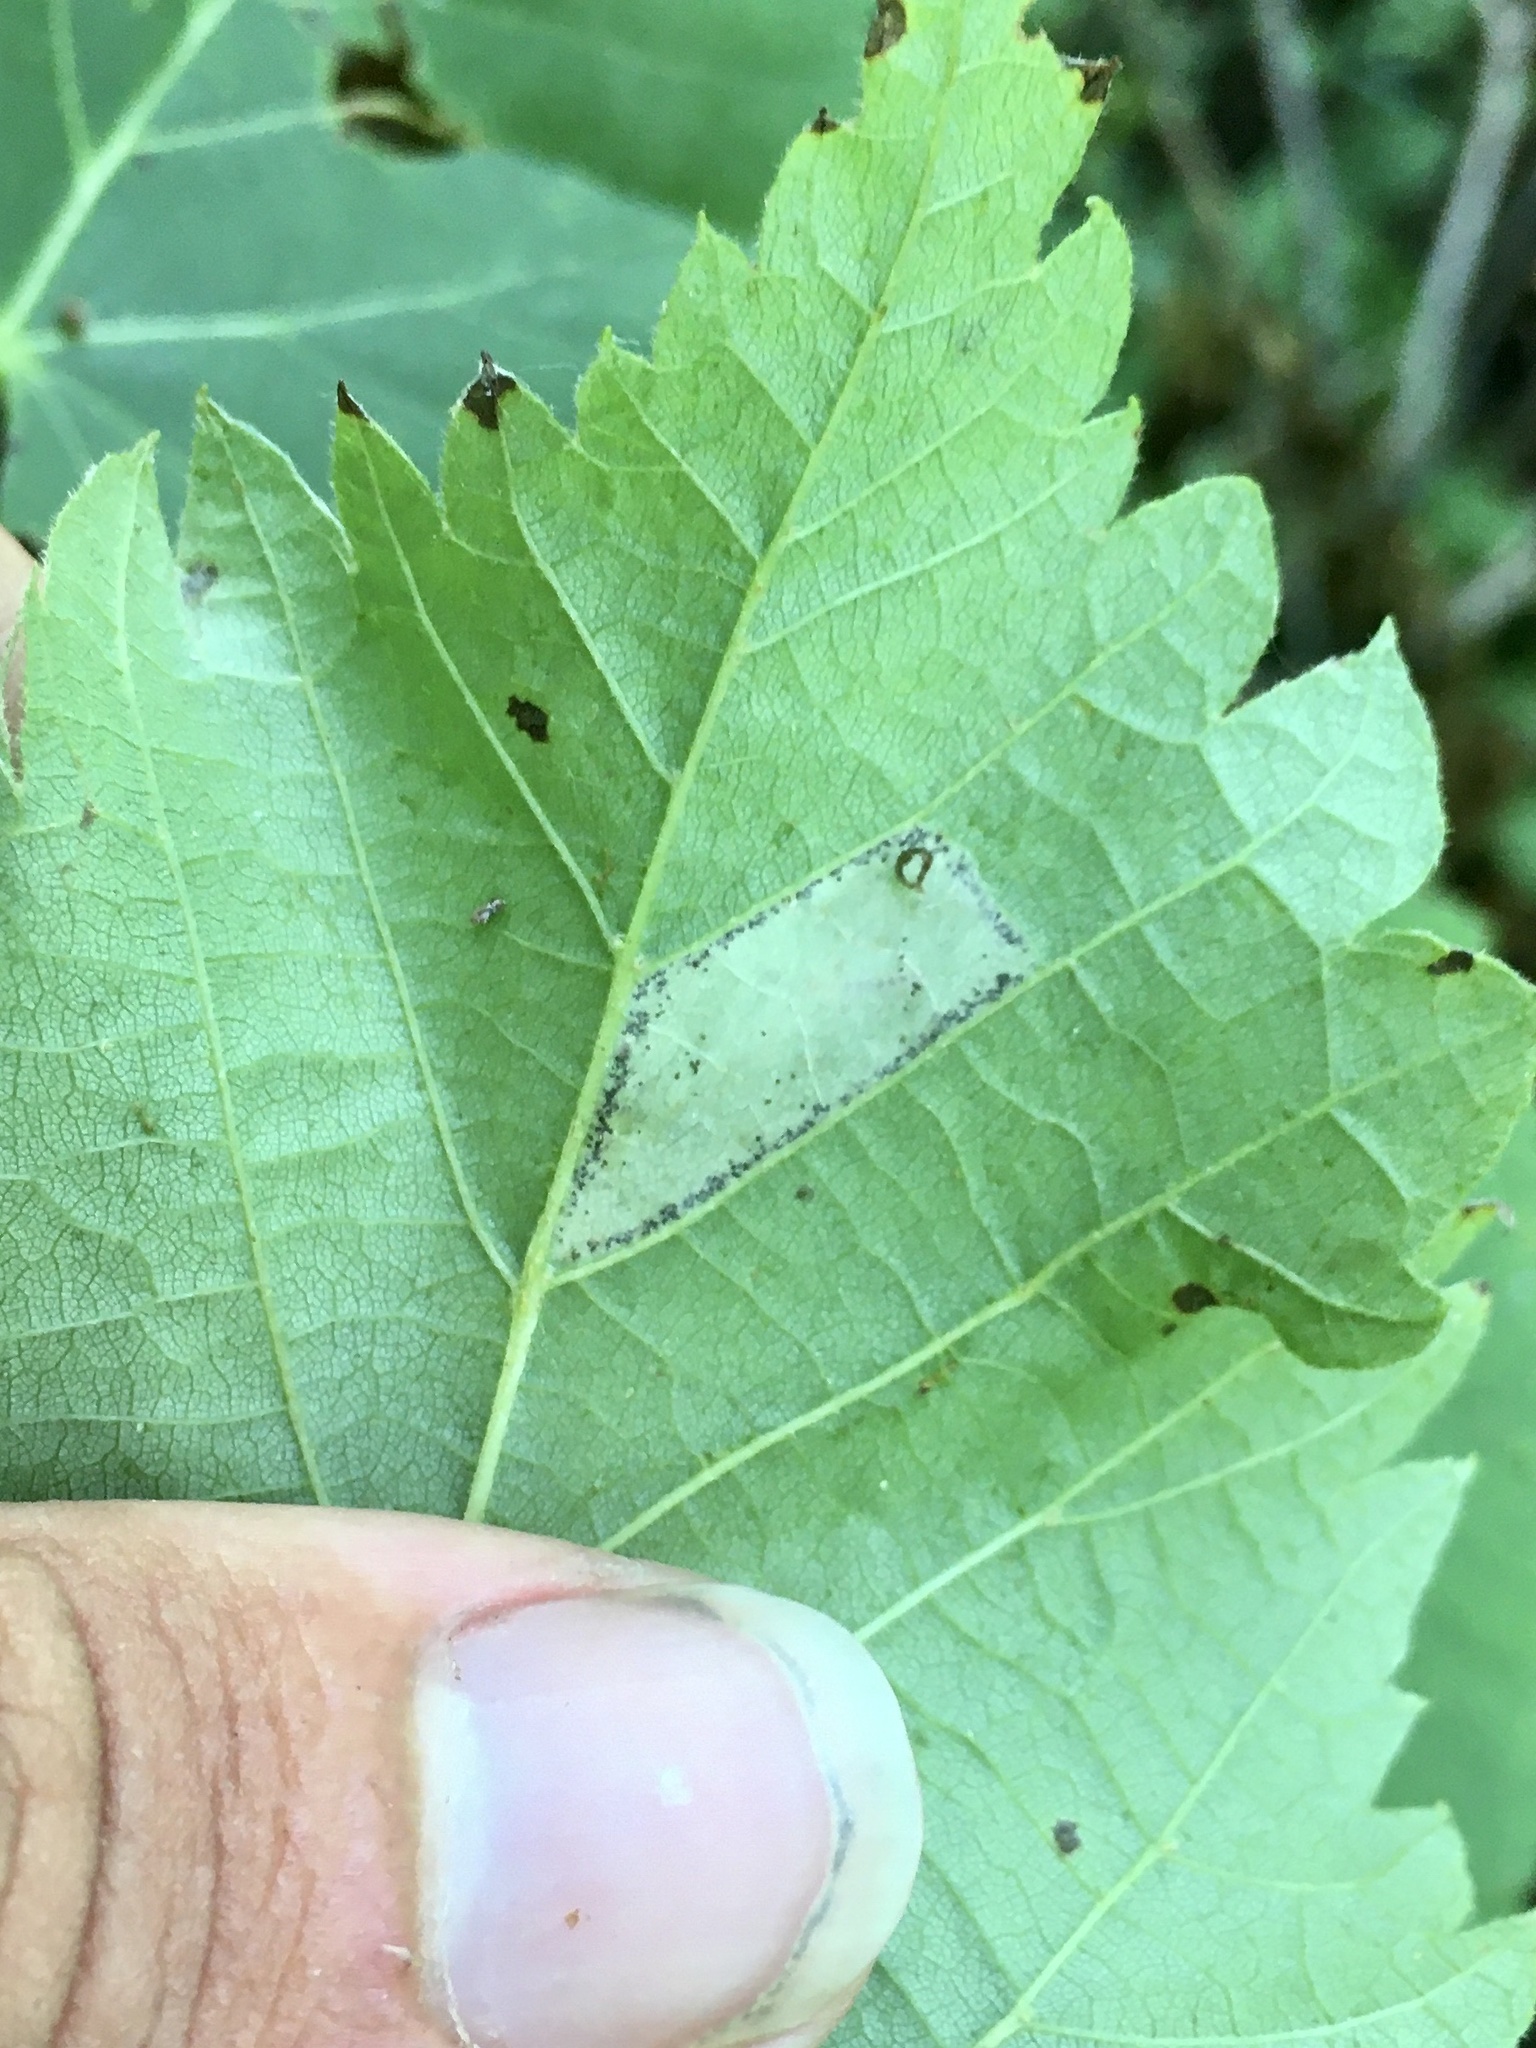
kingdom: Animalia
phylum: Arthropoda
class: Insecta
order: Lepidoptera
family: Gracillariidae
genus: Phyllonorycter
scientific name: Phyllonorycter lucetiella
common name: Basswood miner moth
